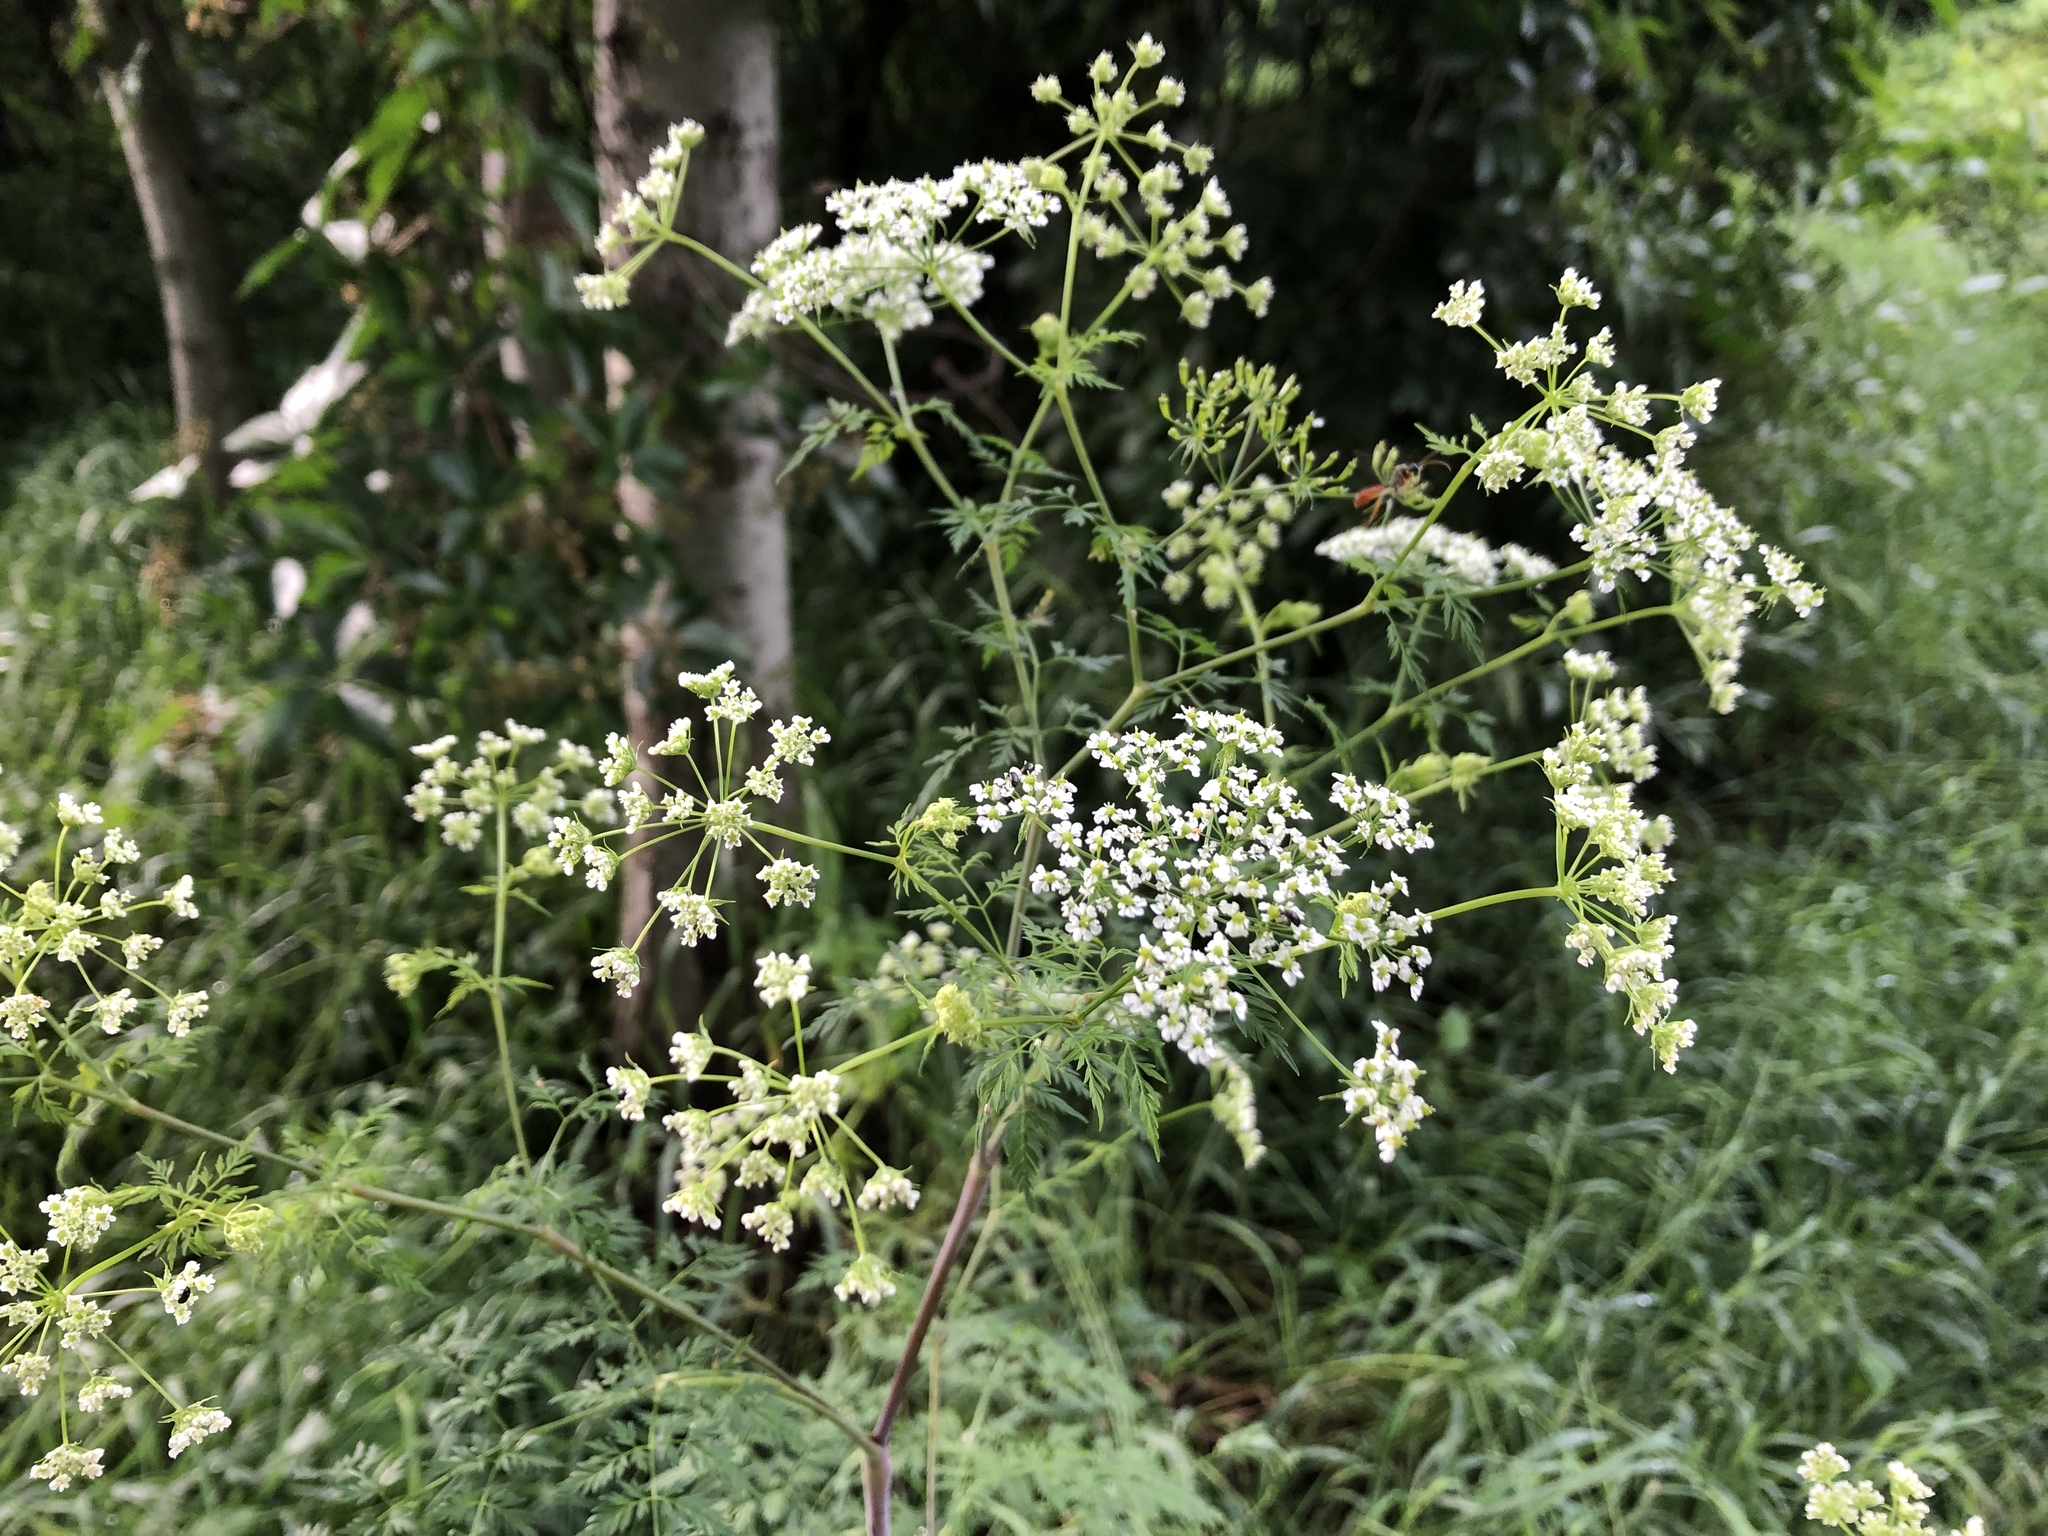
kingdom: Plantae
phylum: Tracheophyta
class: Magnoliopsida
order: Apiales
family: Apiaceae
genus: Chaerophyllum
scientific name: Chaerophyllum bulbosum
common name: Bulbous chervil
